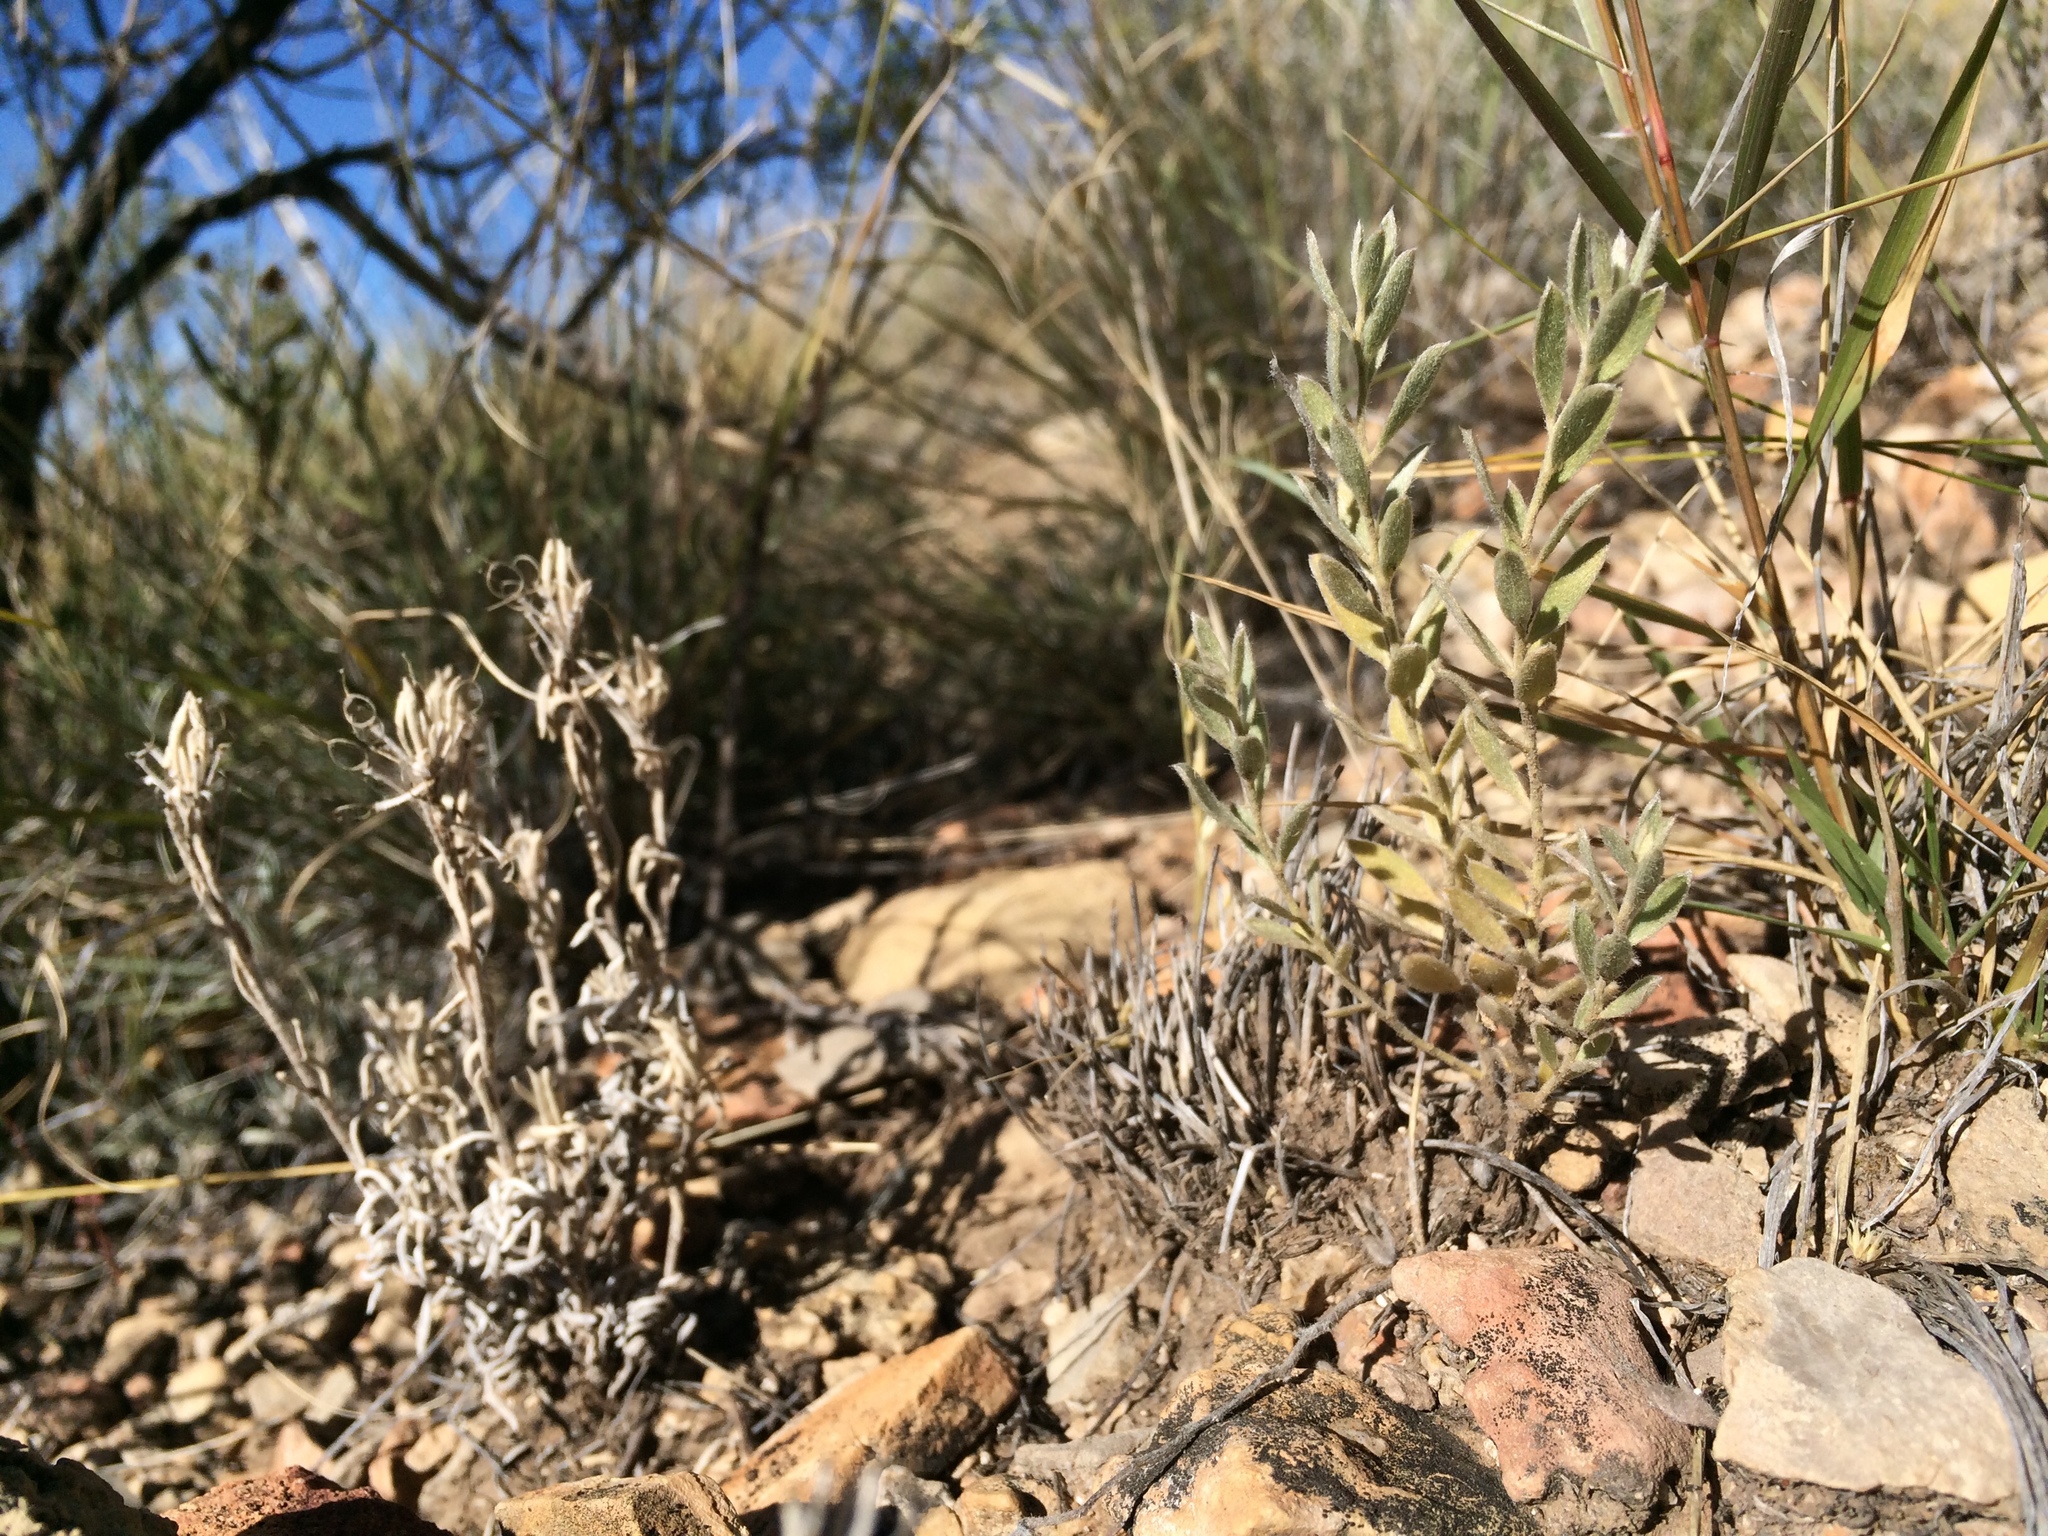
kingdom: Plantae
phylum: Tracheophyta
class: Magnoliopsida
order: Solanales
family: Convolvulaceae
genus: Evolvulus
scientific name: Evolvulus nuttallianus
